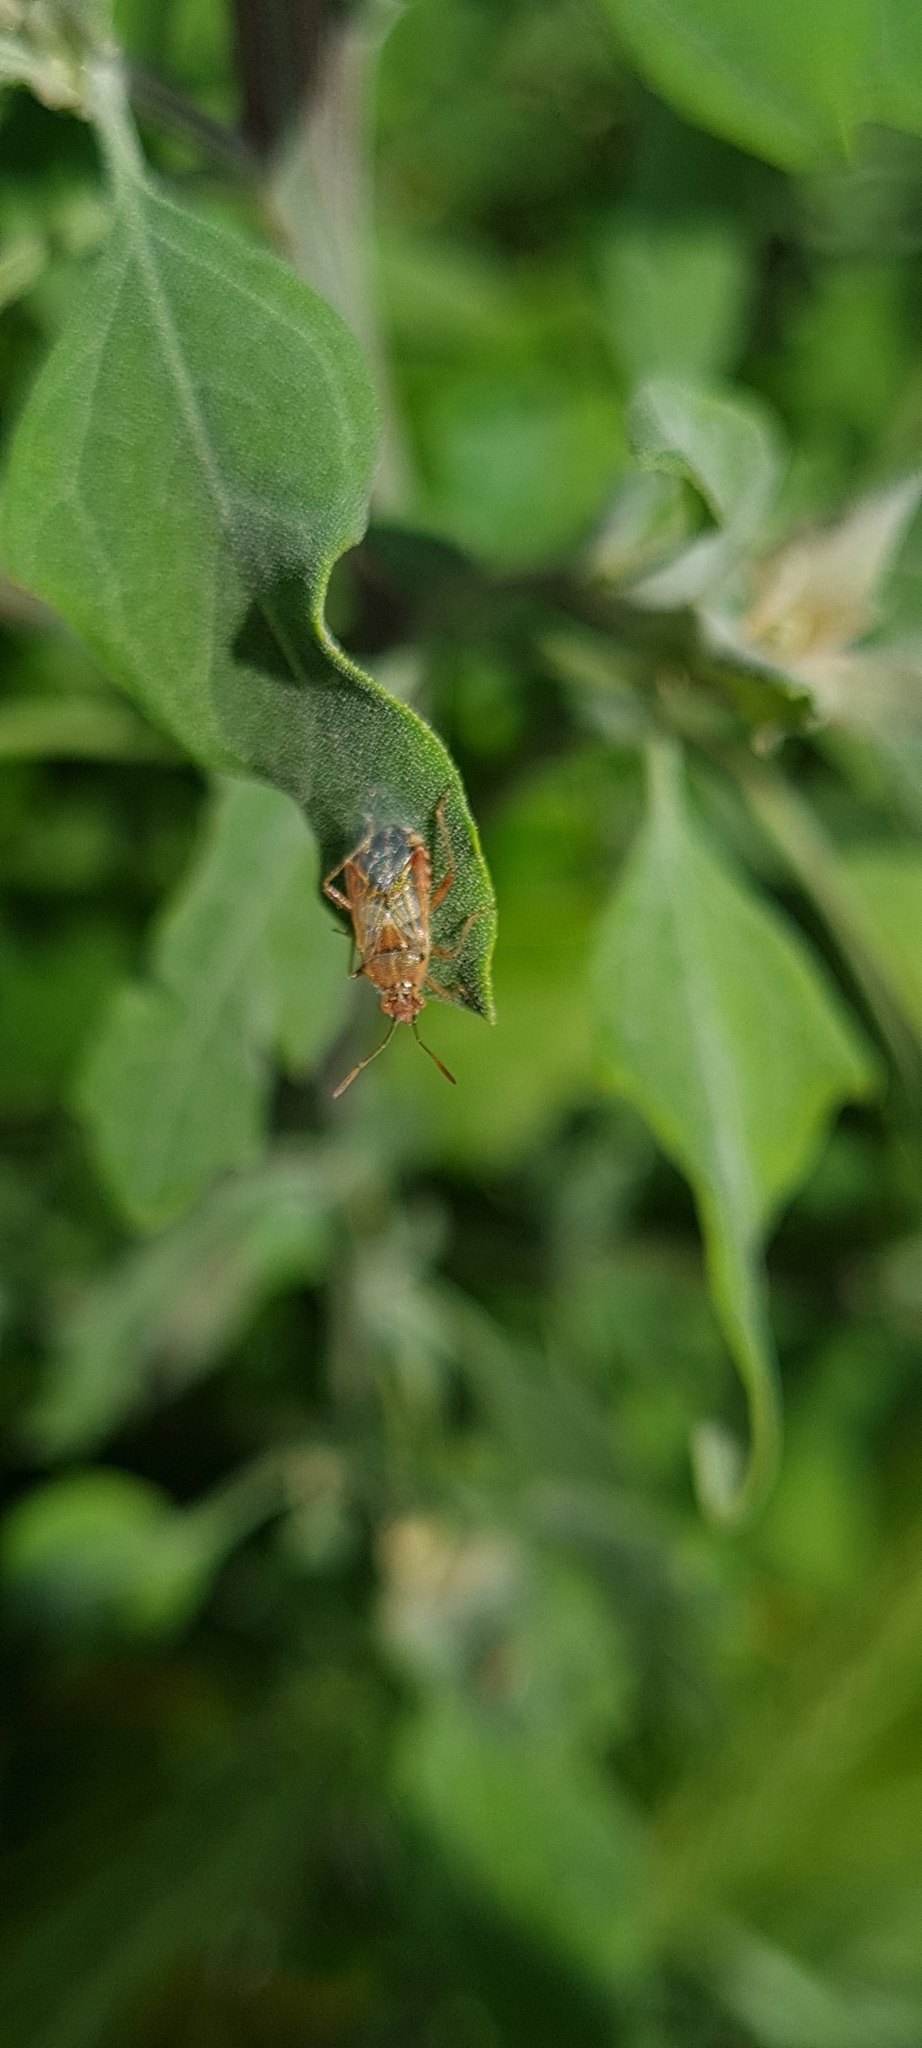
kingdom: Animalia
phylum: Arthropoda
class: Insecta
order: Hemiptera
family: Rhopalidae
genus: Liorhyssus
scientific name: Liorhyssus hyalinus
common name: Scentless plant bug
